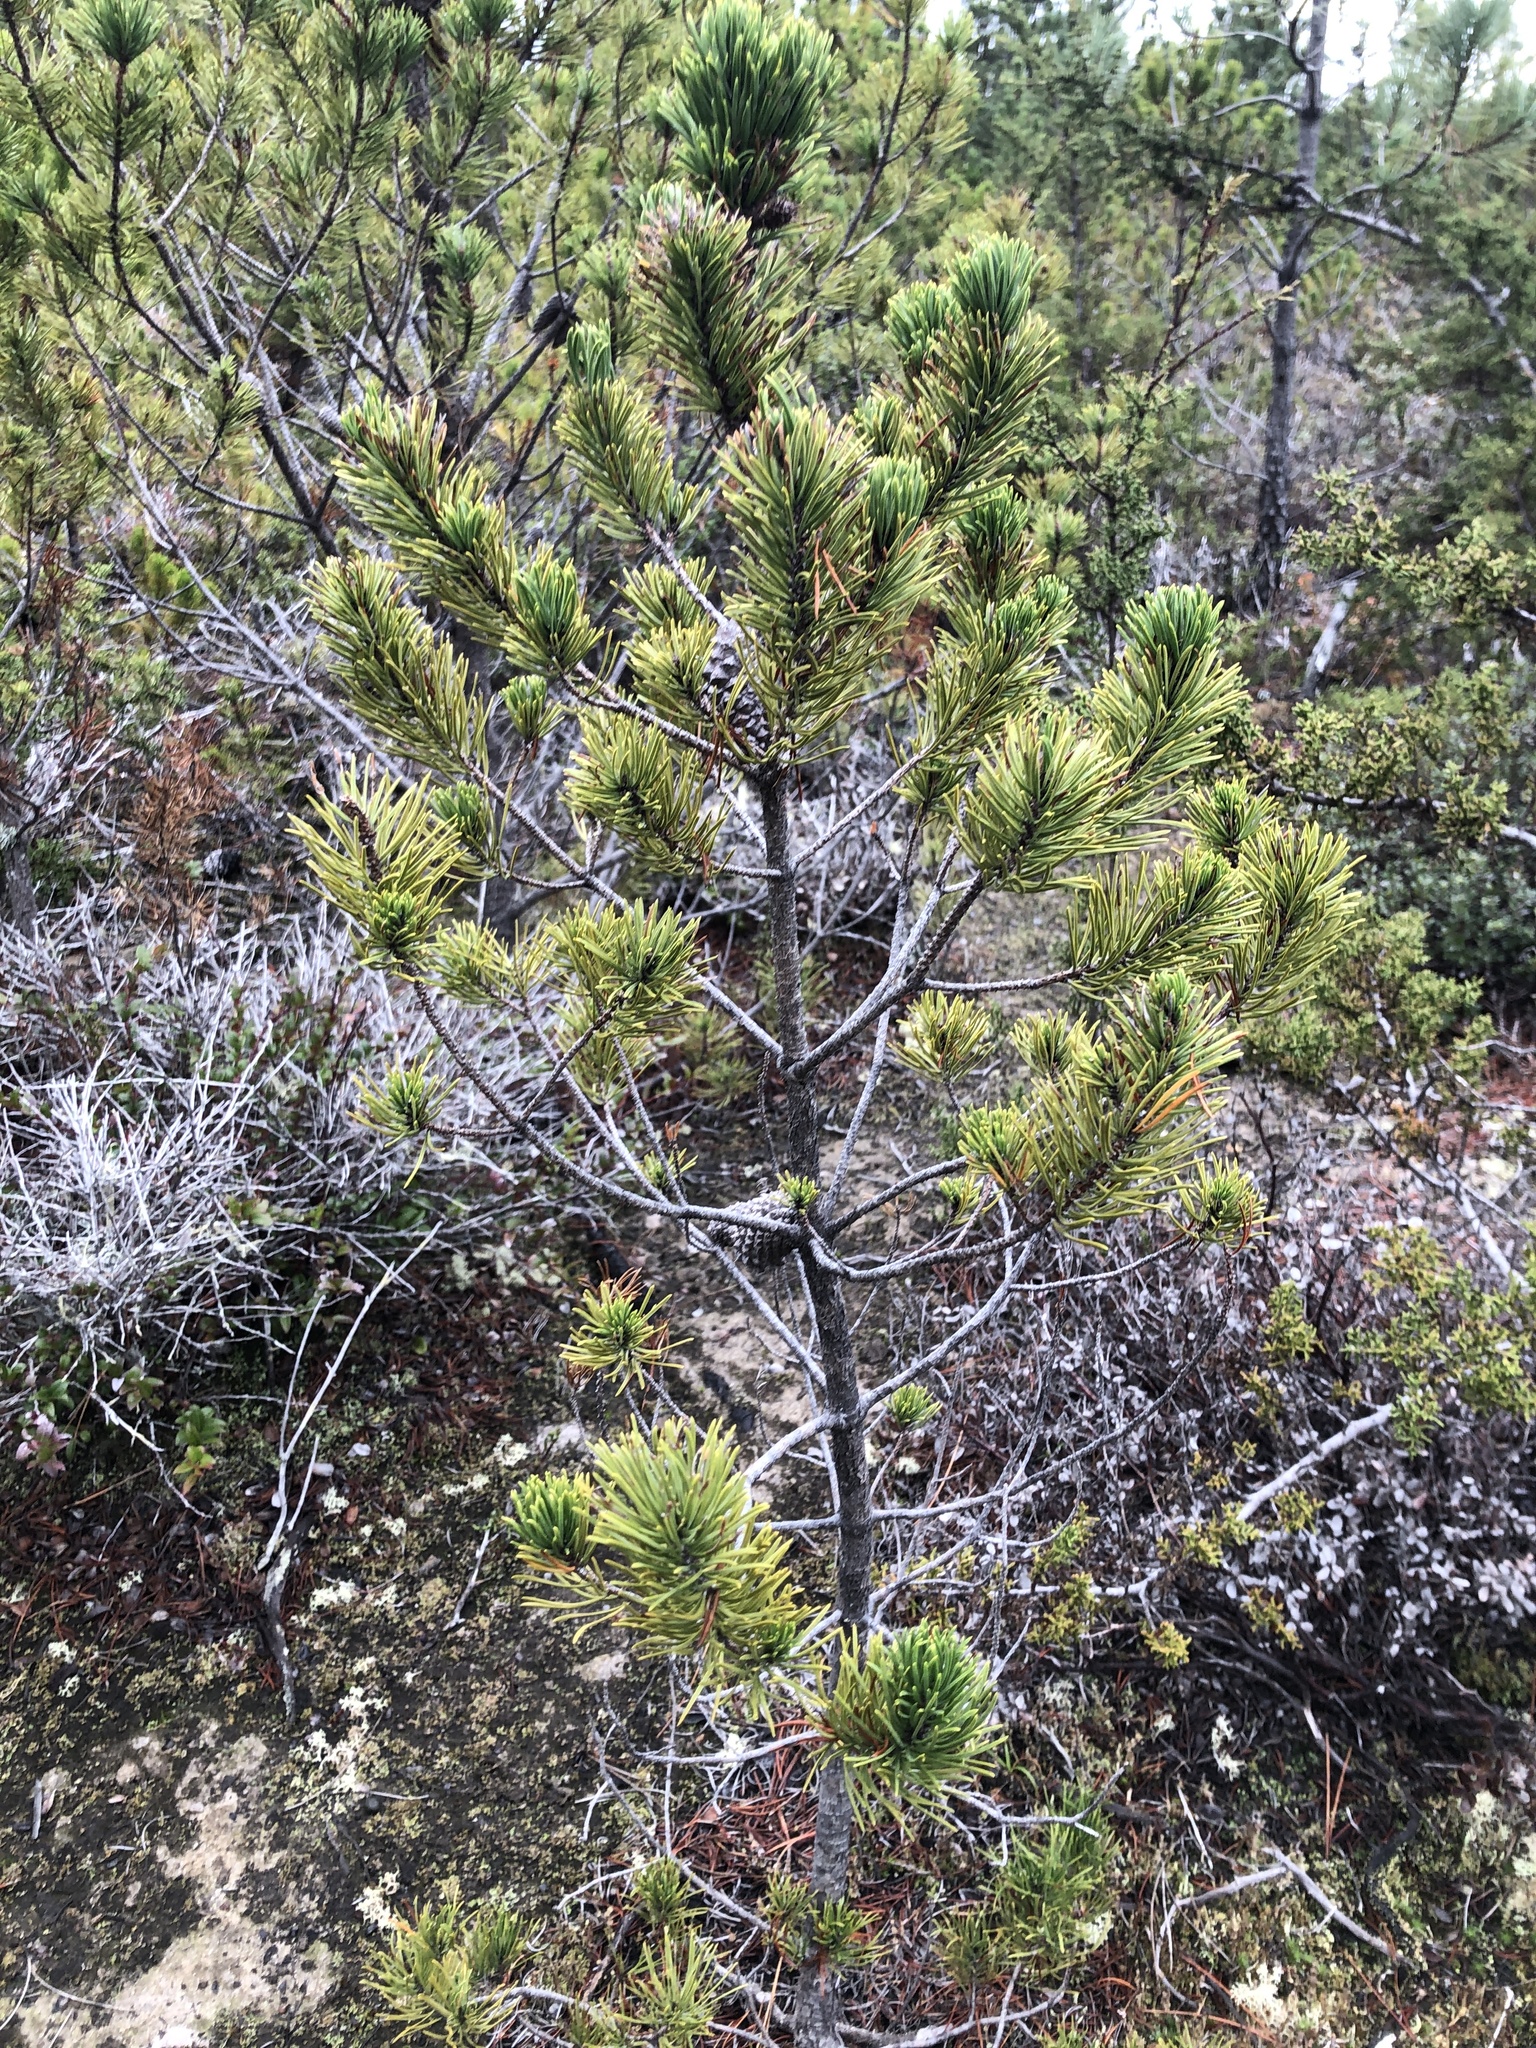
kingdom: Plantae
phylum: Tracheophyta
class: Pinopsida
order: Pinales
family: Pinaceae
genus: Pinus
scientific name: Pinus contorta
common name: Lodgepole pine
